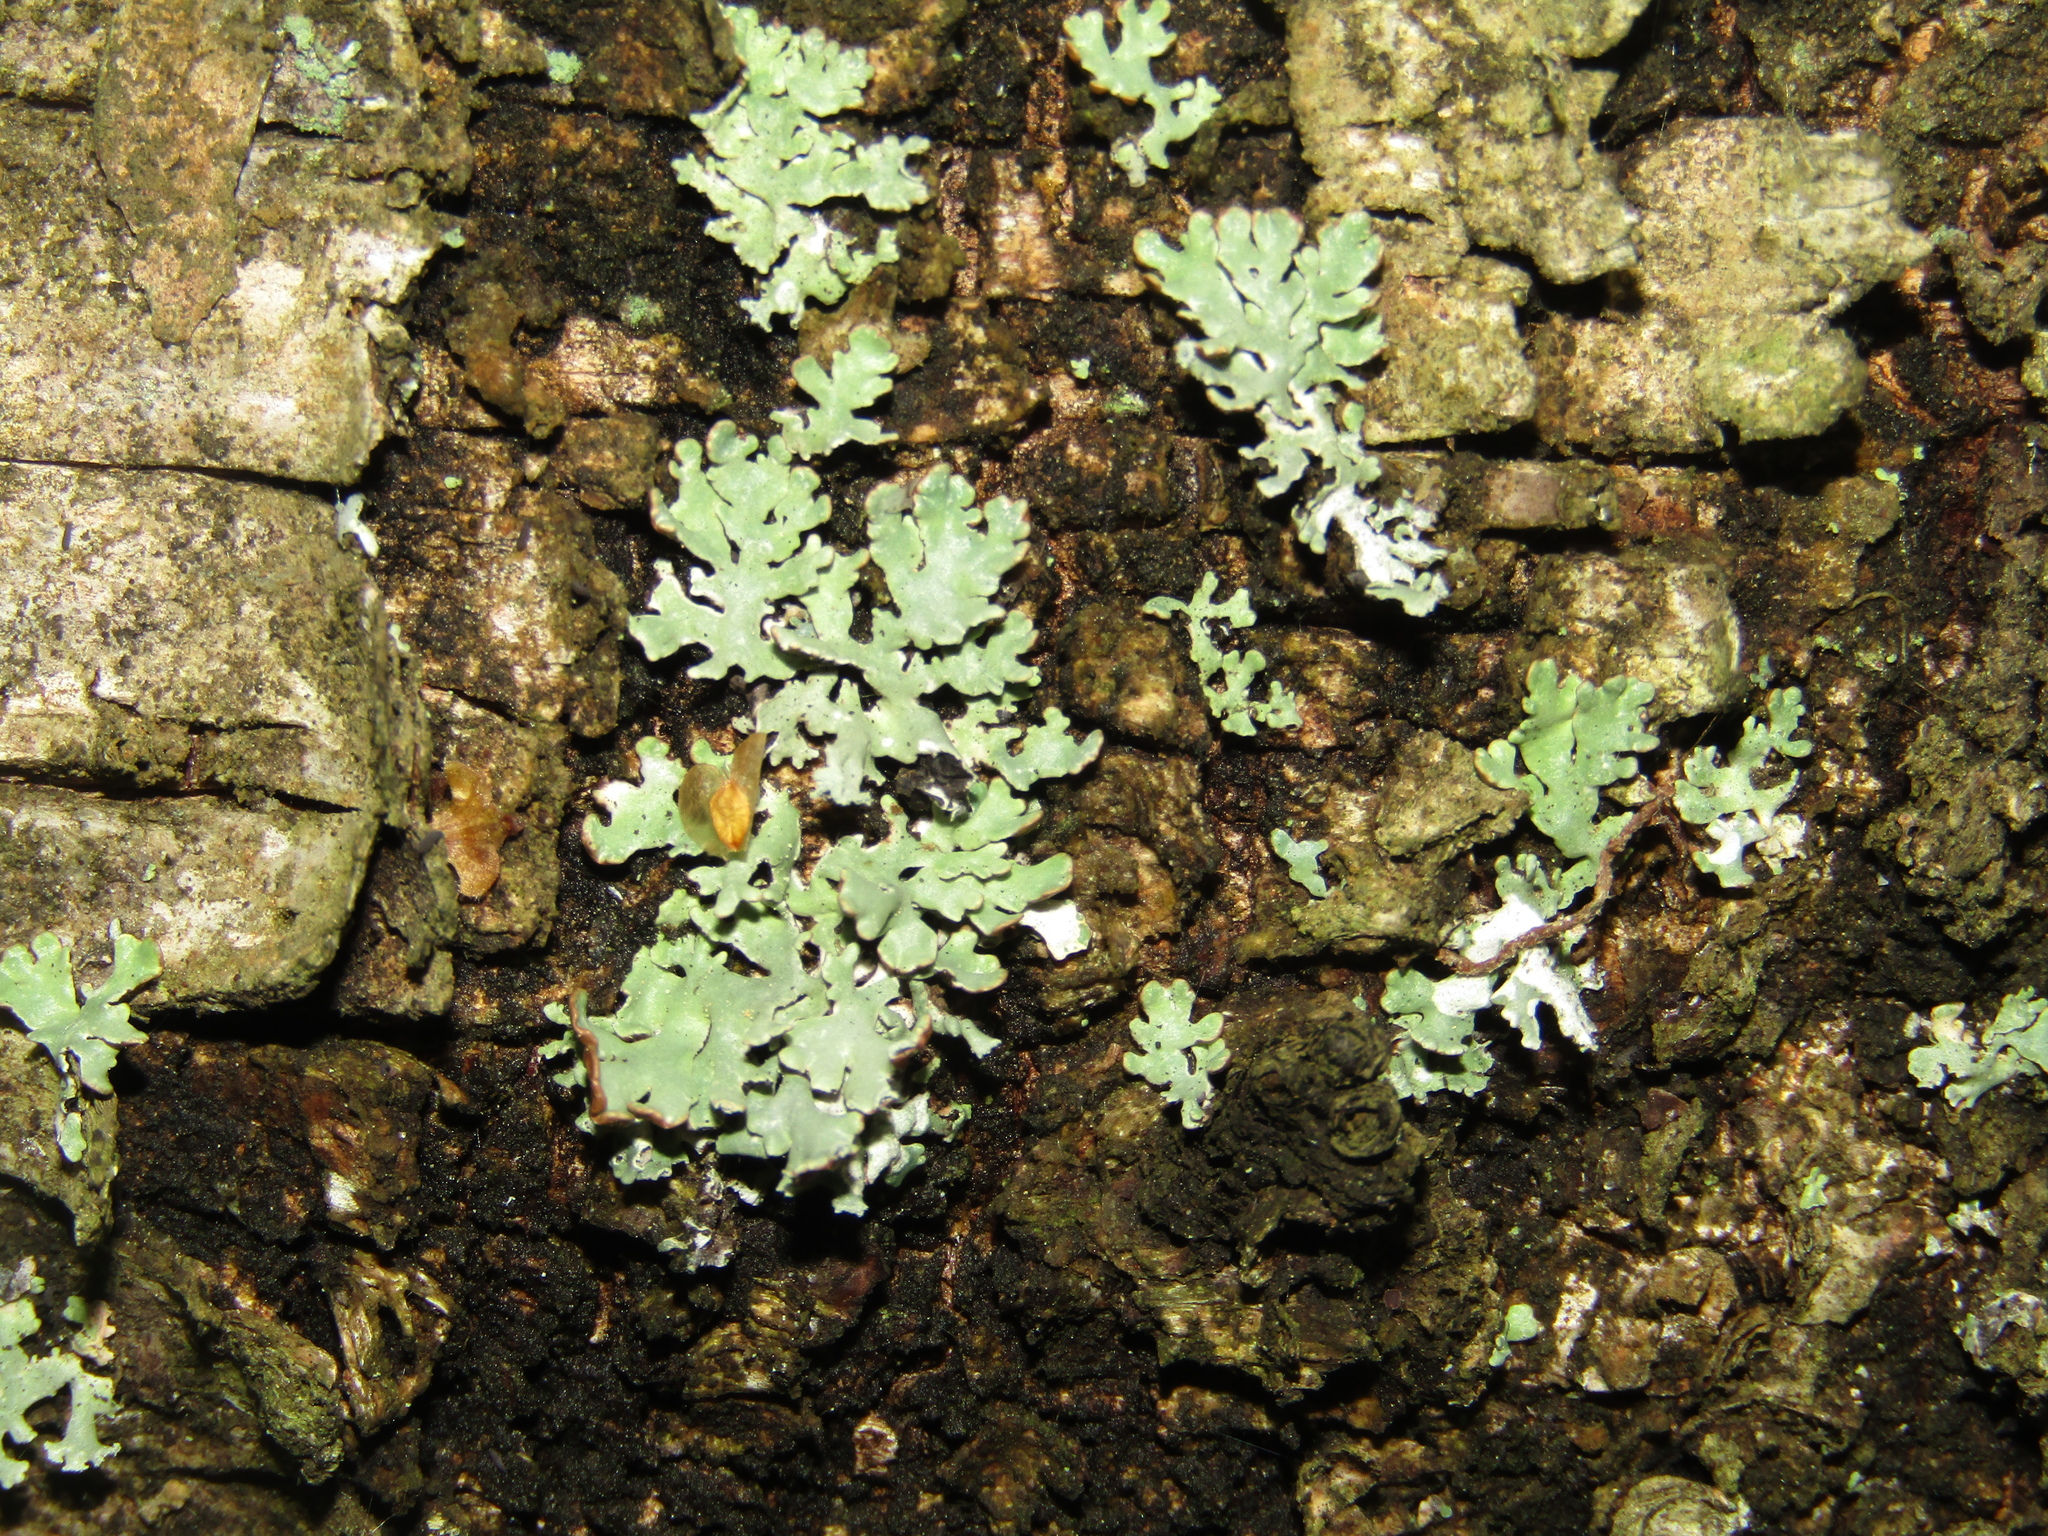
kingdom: Fungi
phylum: Ascomycota
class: Lecanoromycetes
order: Lecanorales
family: Parmeliaceae
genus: Hypogymnia
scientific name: Hypogymnia physodes
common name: Dark crottle
